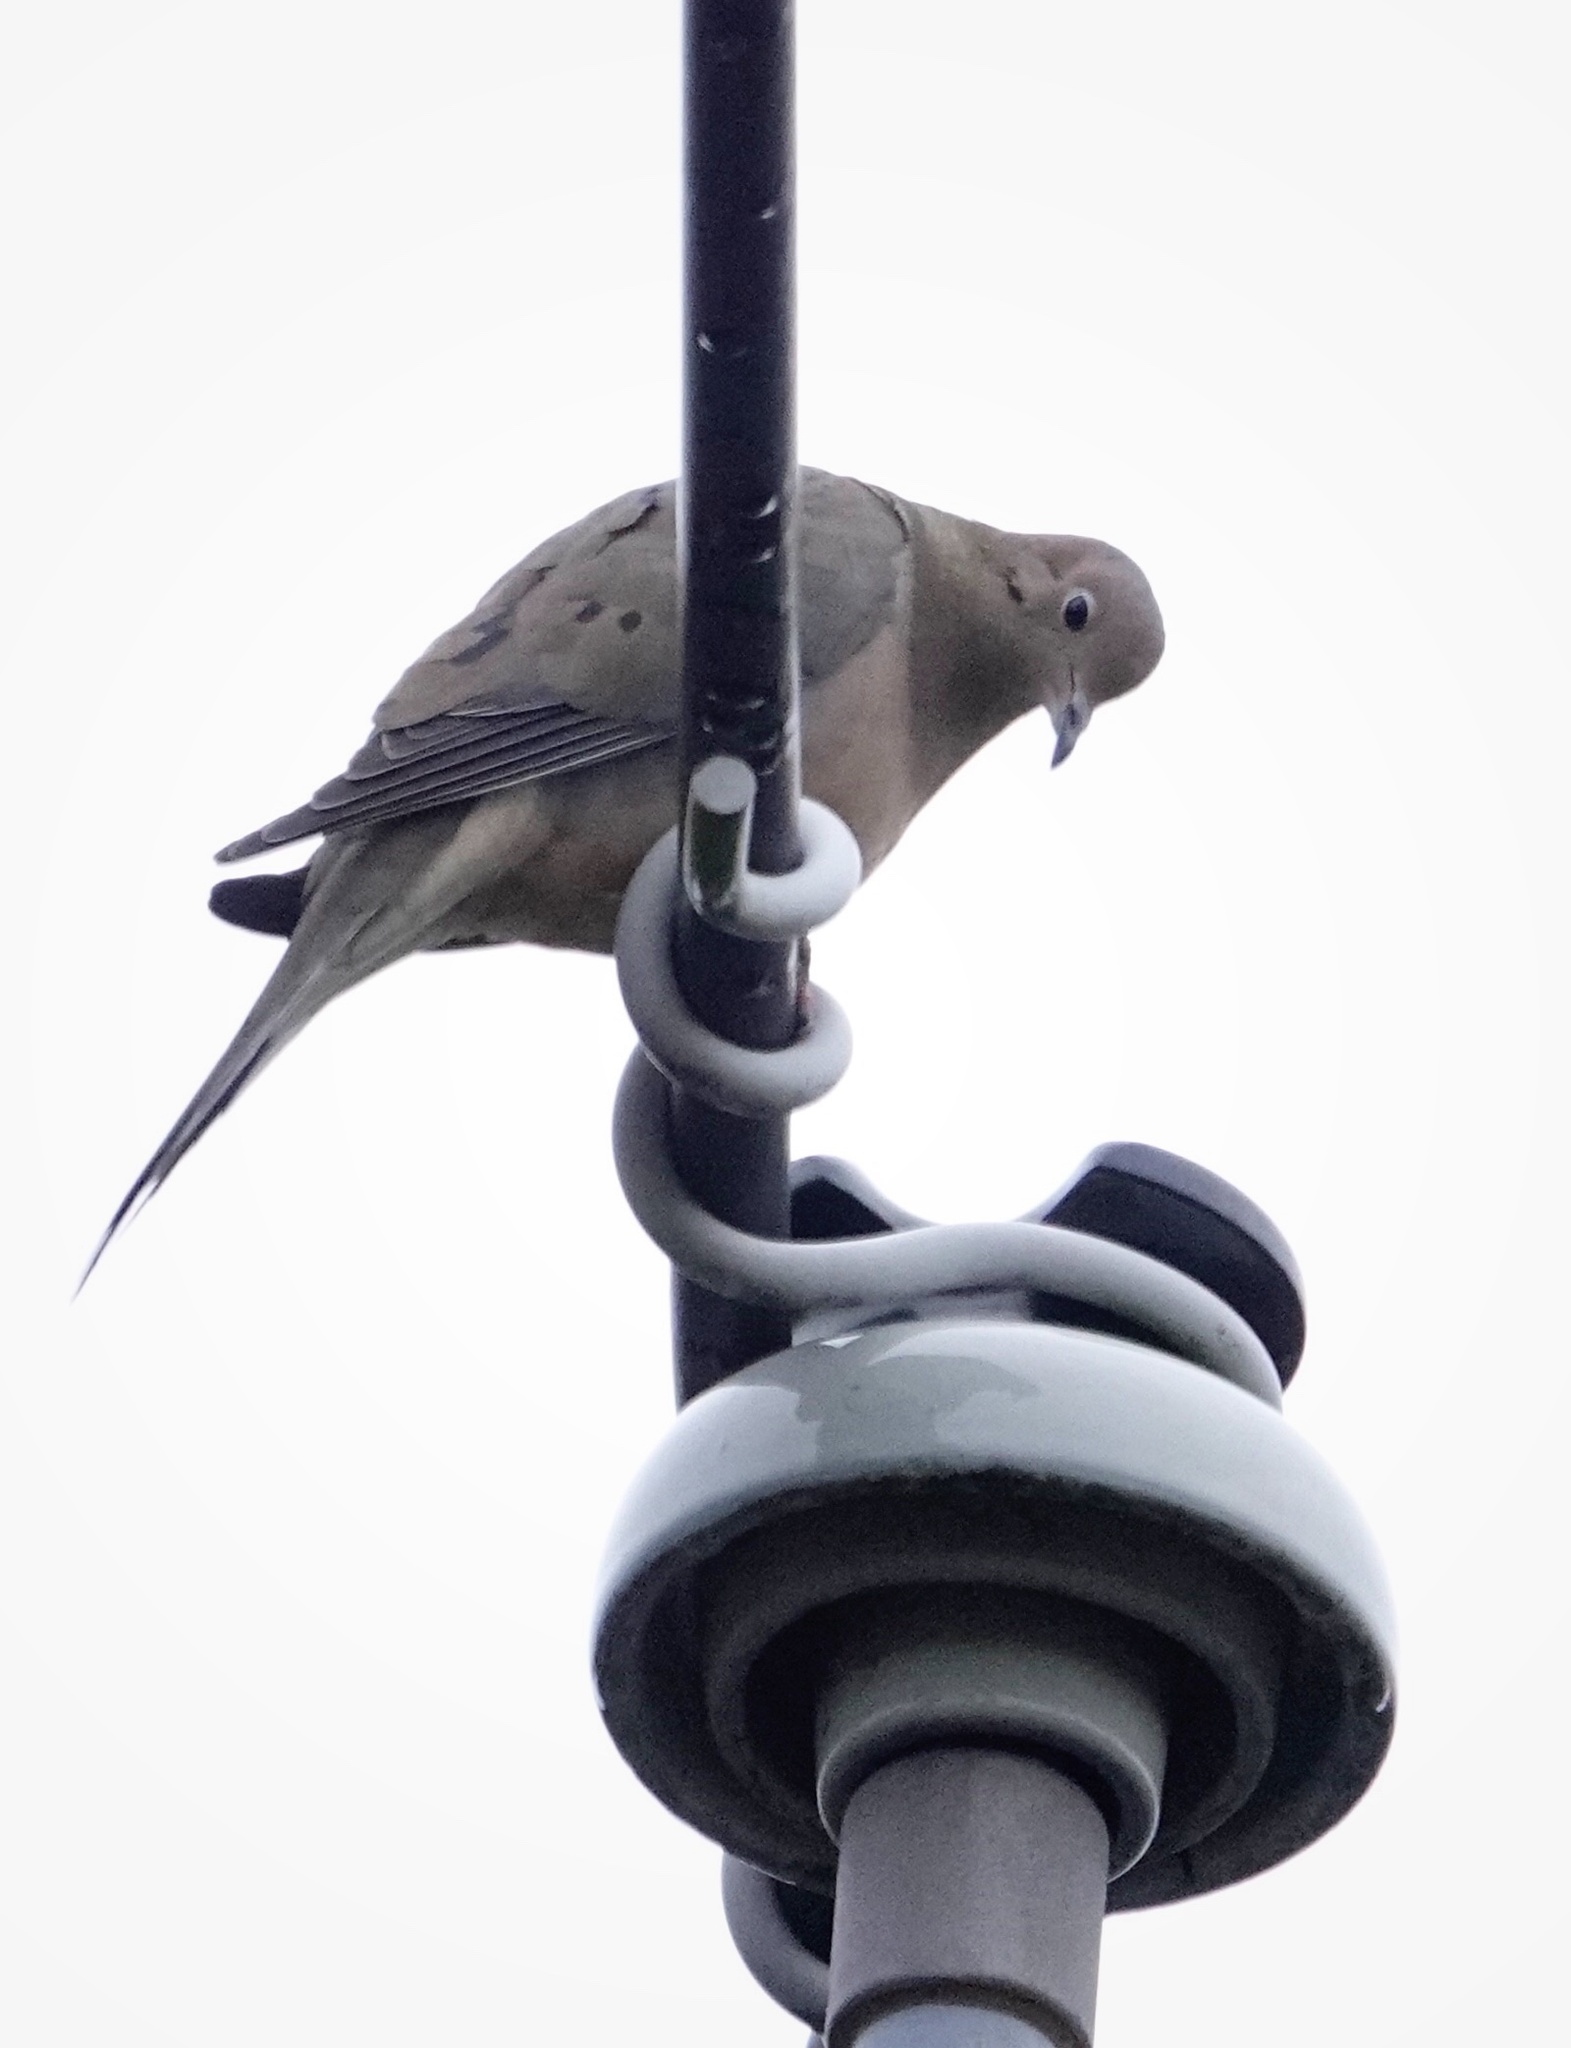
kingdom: Animalia
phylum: Chordata
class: Aves
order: Columbiformes
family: Columbidae
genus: Zenaida
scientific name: Zenaida macroura
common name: Mourning dove
